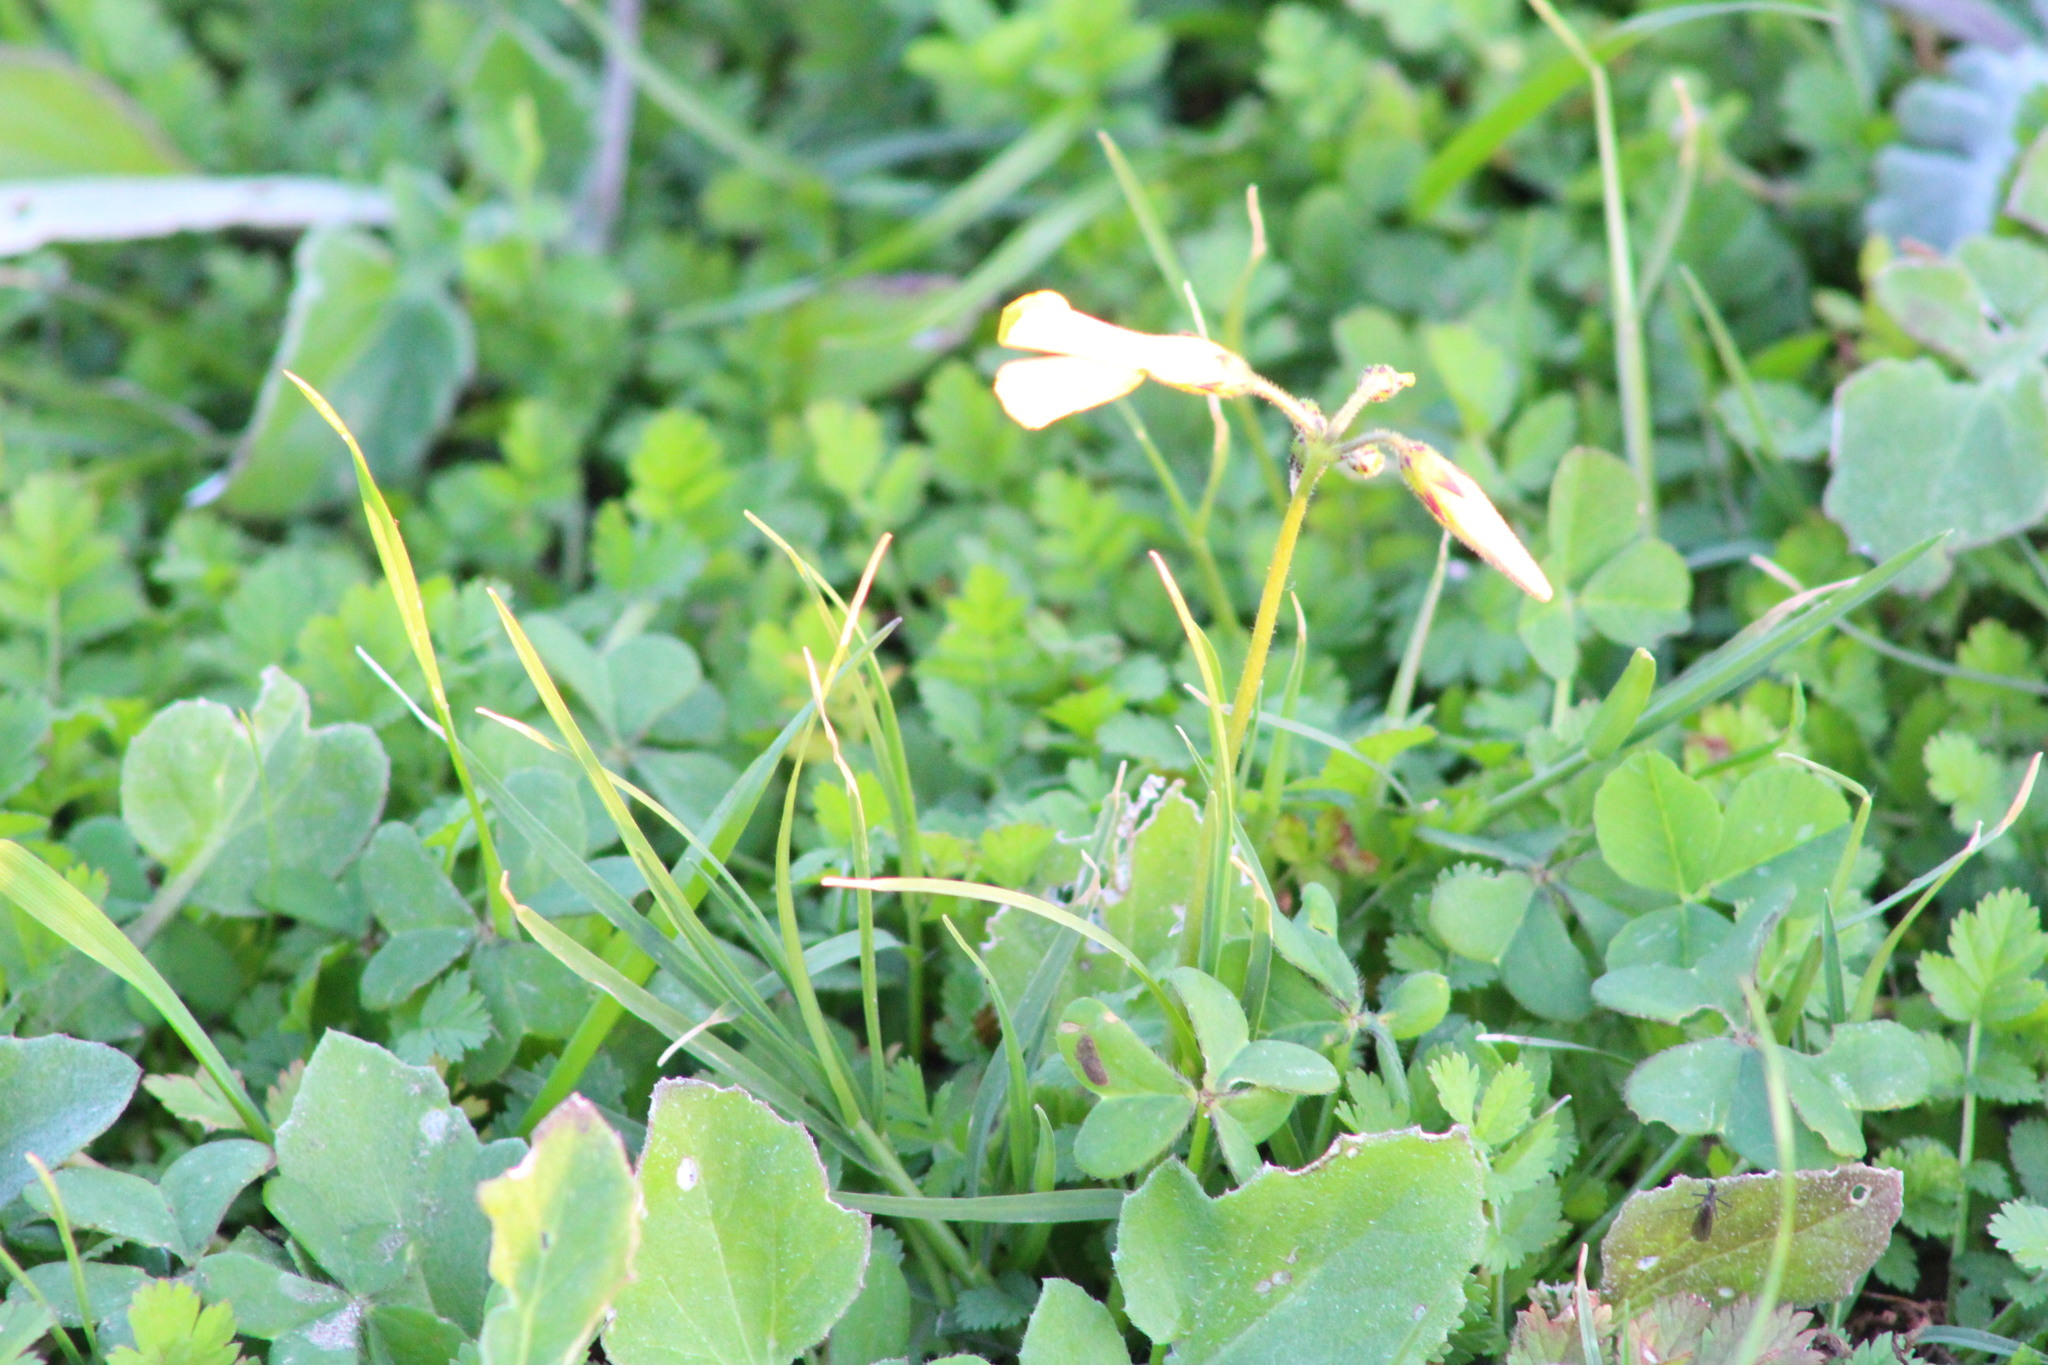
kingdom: Plantae
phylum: Tracheophyta
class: Magnoliopsida
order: Oxalidales
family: Oxalidaceae
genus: Oxalis
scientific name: Oxalis pes-caprae
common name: Bermuda-buttercup
